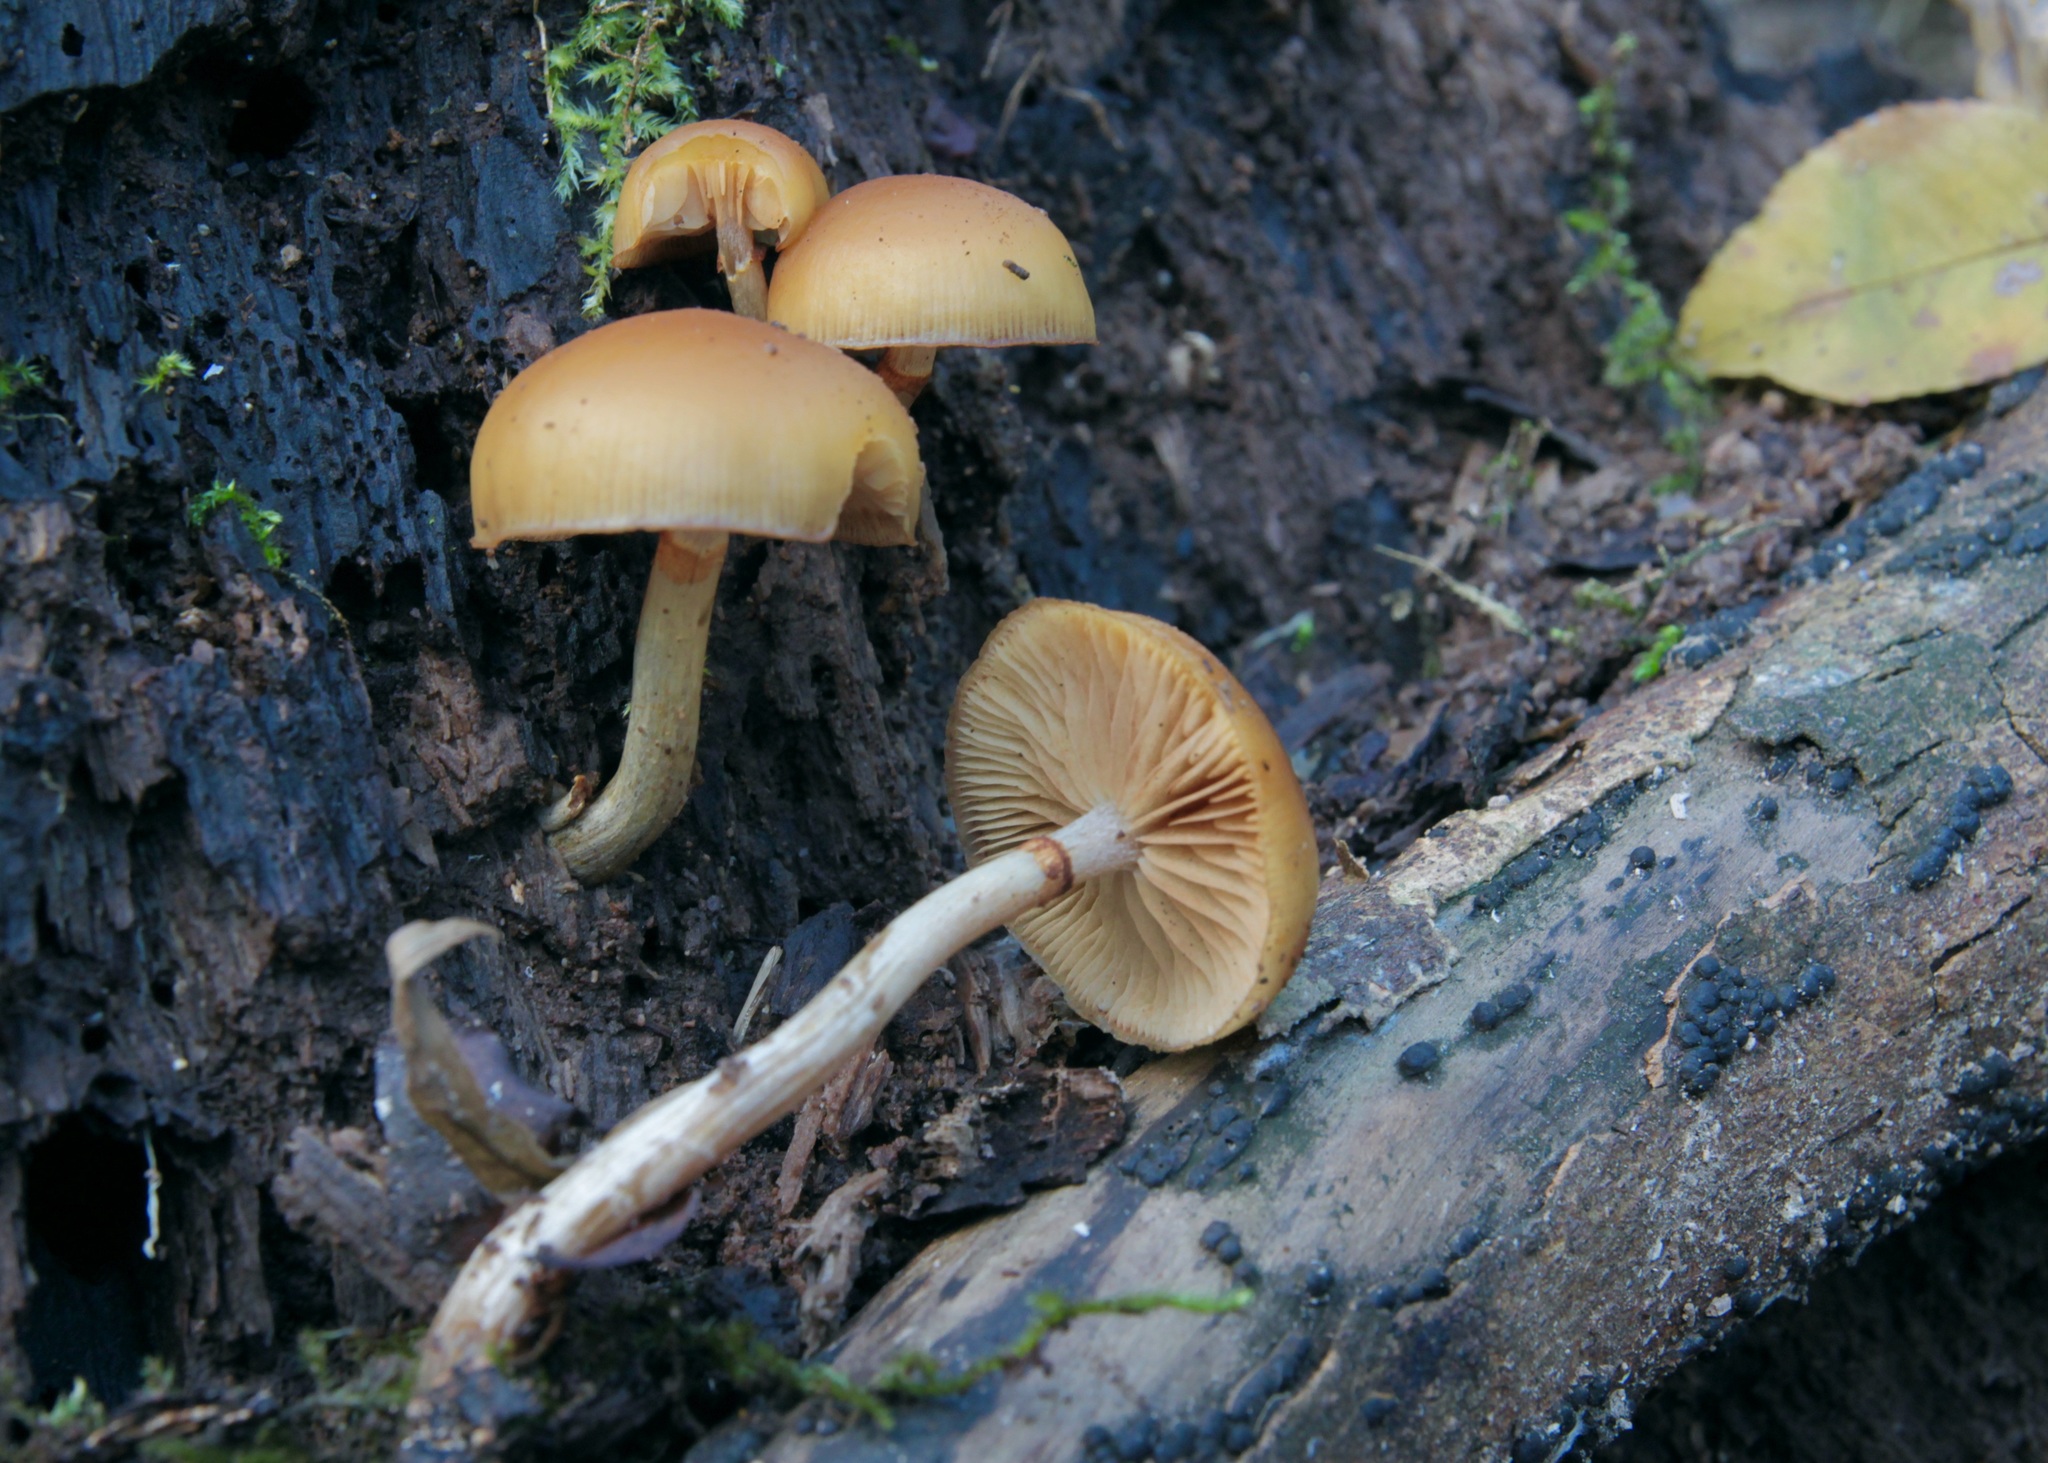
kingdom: Fungi
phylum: Basidiomycota
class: Agaricomycetes
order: Agaricales
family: Hymenogastraceae
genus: Galerina
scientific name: Galerina marginata
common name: Funeral bell
